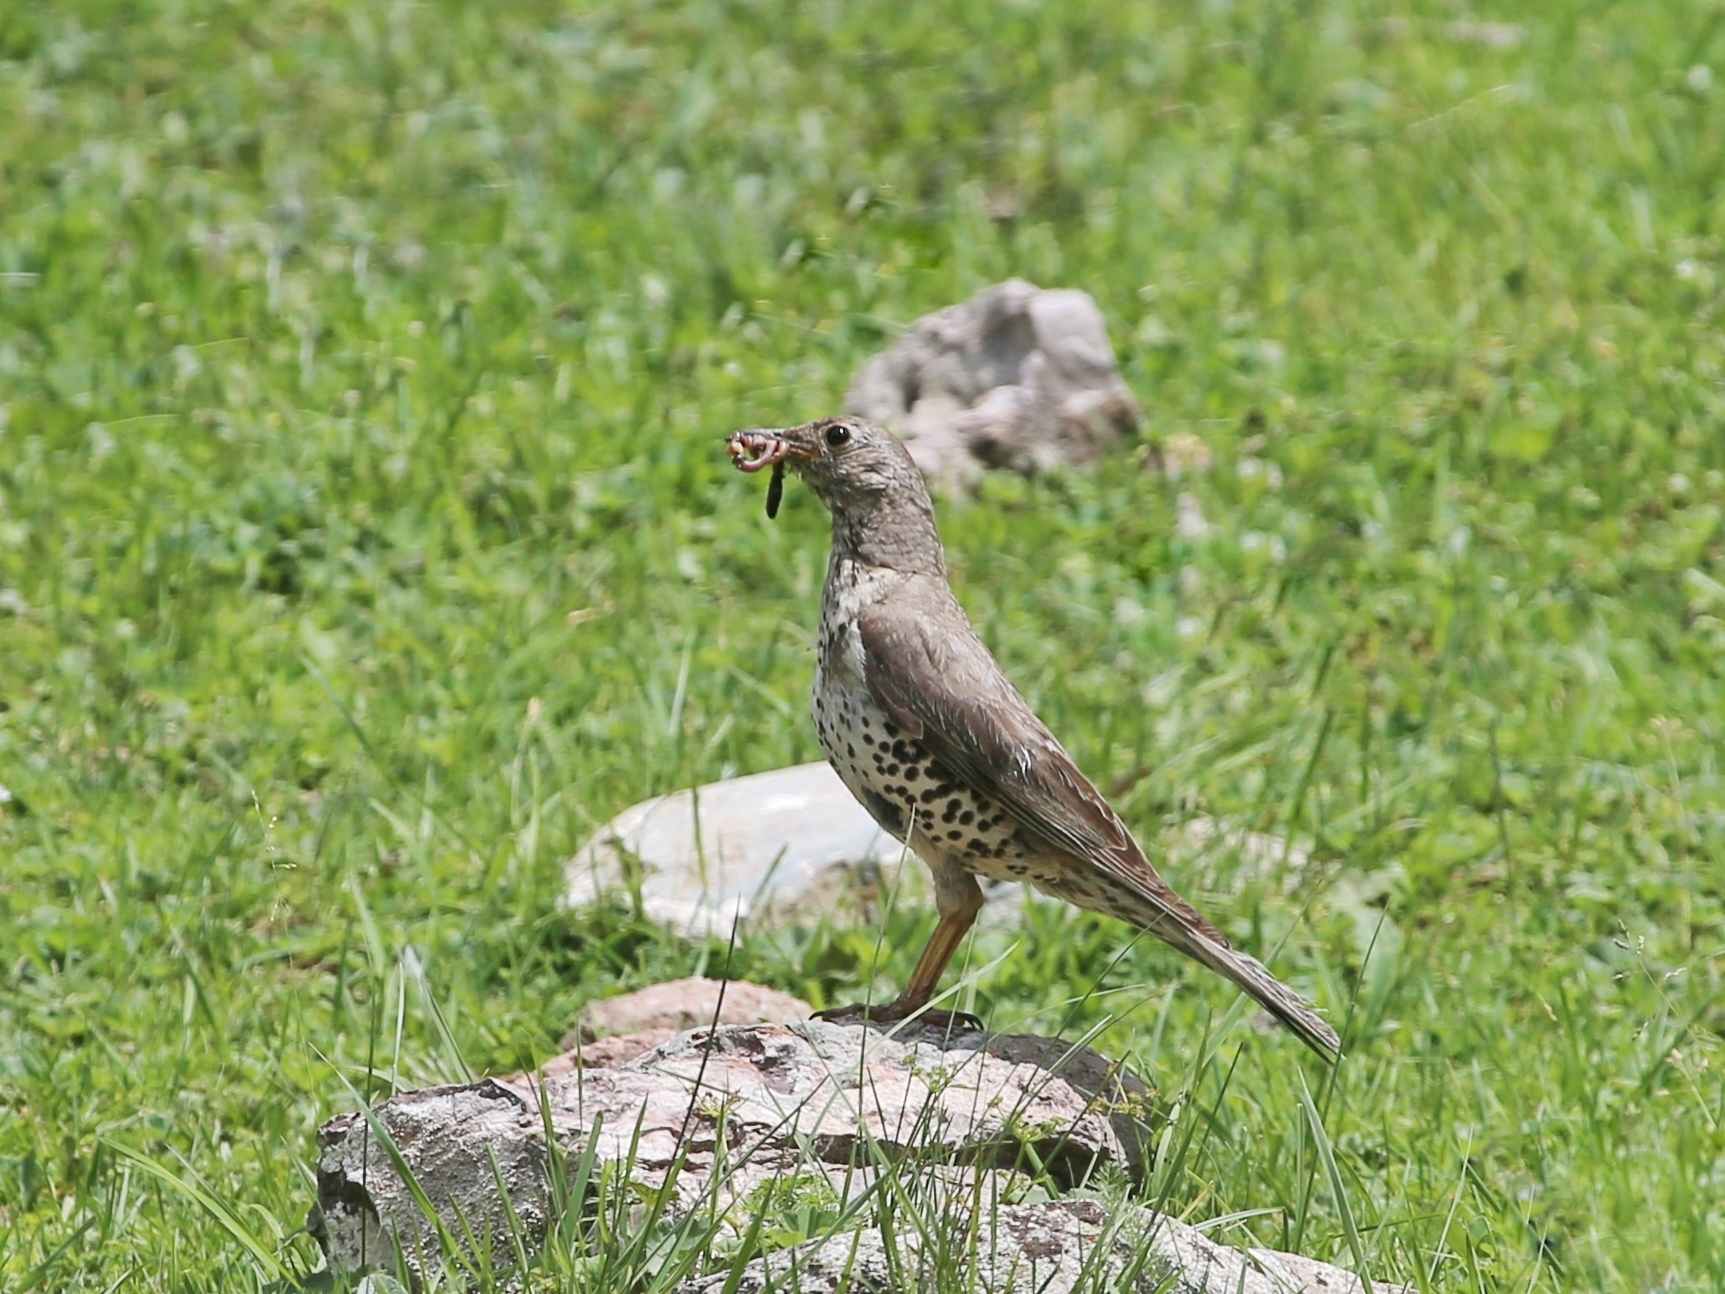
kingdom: Animalia
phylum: Chordata
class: Aves
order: Passeriformes
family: Turdidae
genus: Turdus
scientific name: Turdus viscivorus
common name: Mistle thrush
